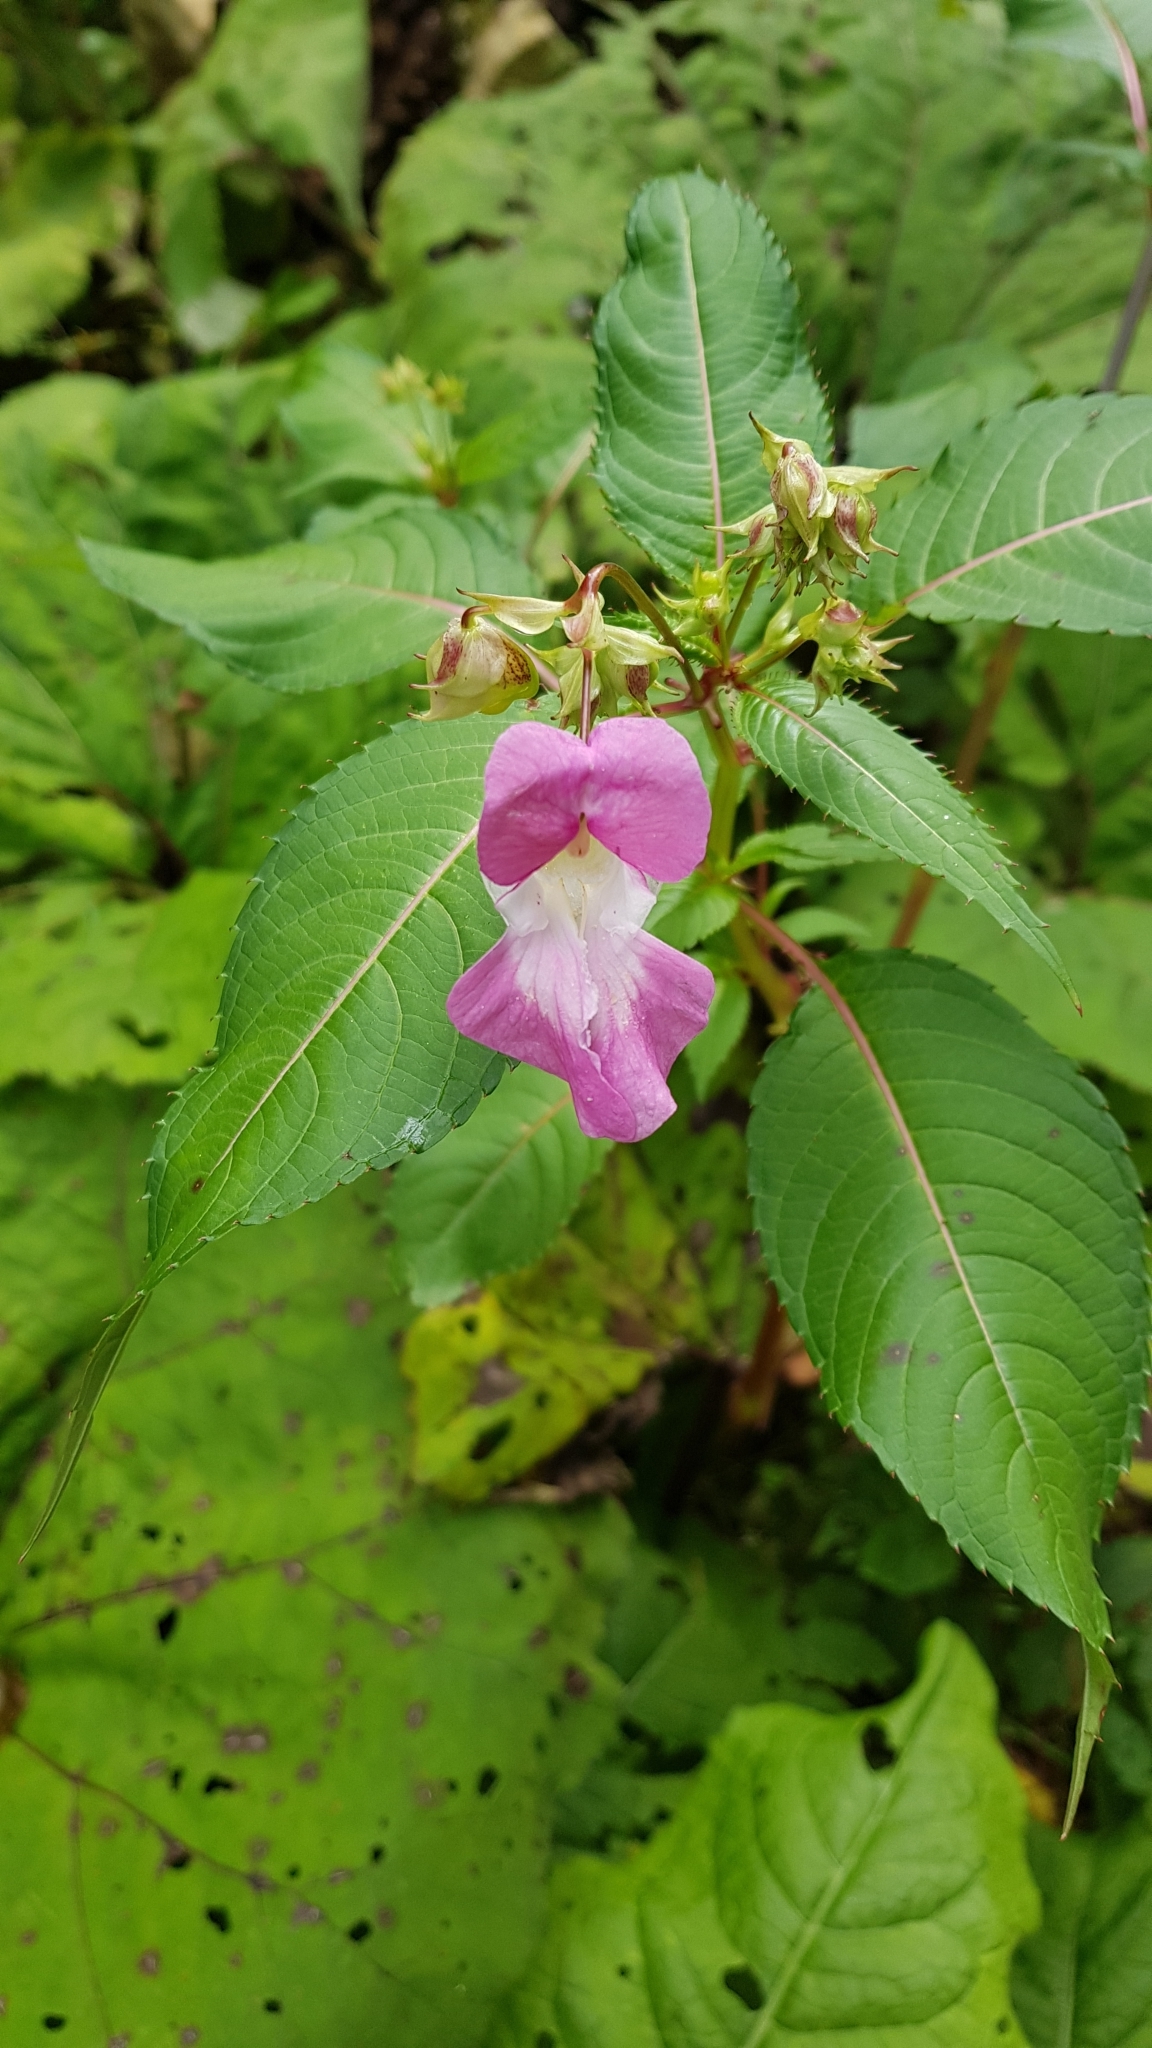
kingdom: Plantae
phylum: Tracheophyta
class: Magnoliopsida
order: Ericales
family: Balsaminaceae
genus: Impatiens
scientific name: Impatiens glandulifera
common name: Himalayan balsam
